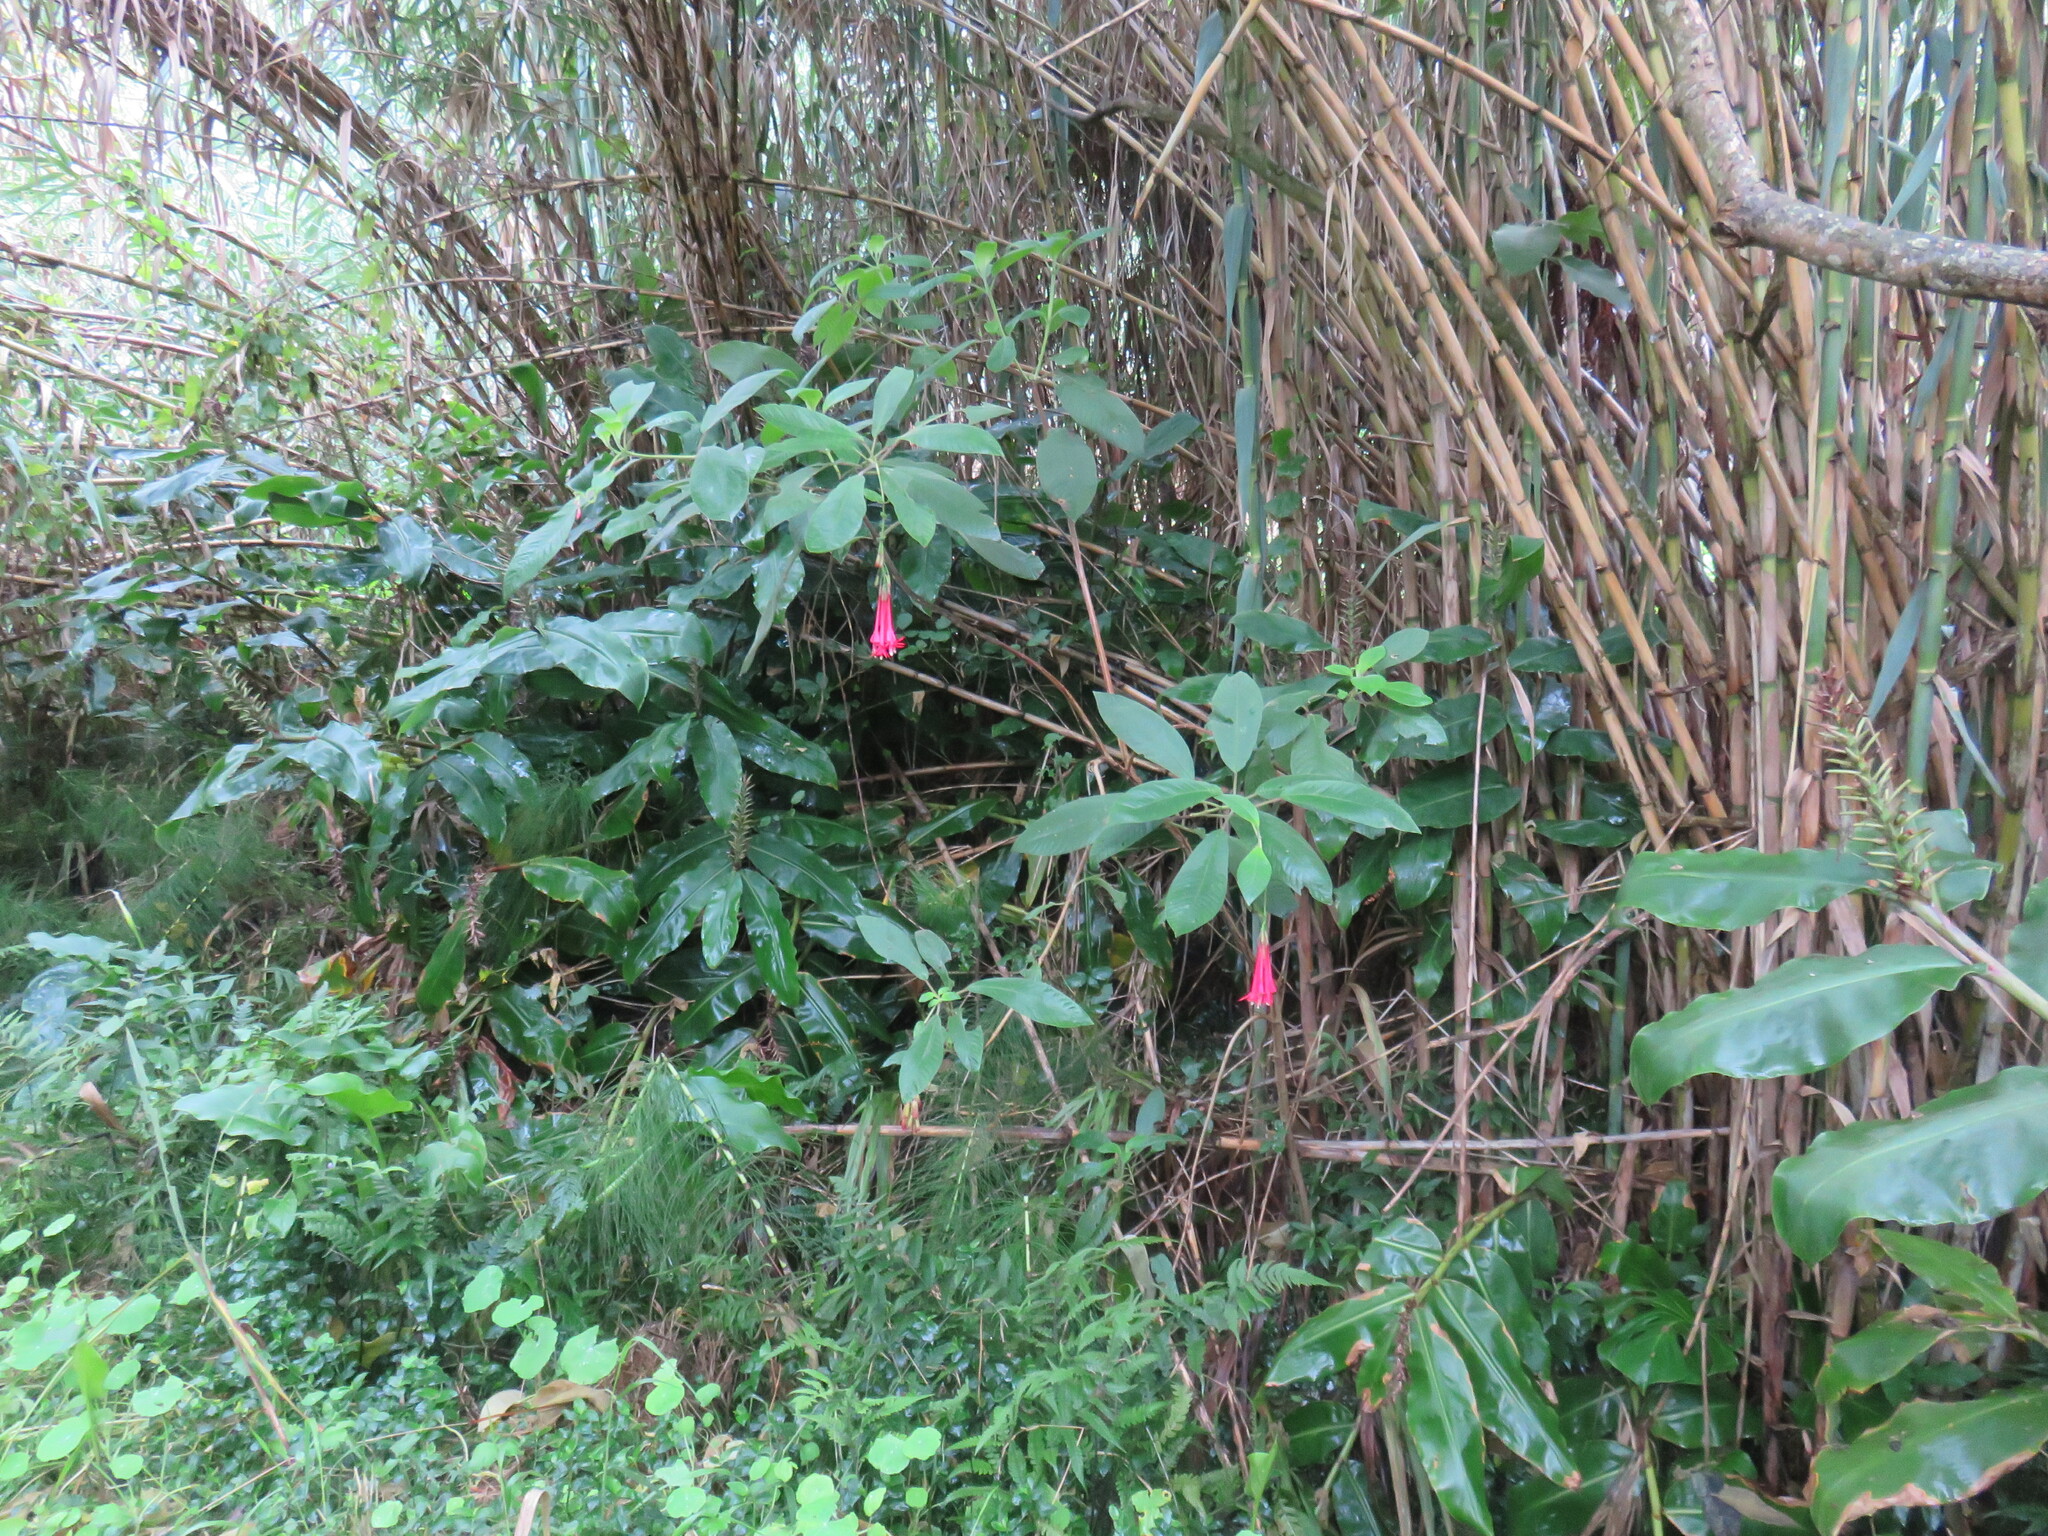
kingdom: Plantae
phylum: Tracheophyta
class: Magnoliopsida
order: Myrtales
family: Onagraceae
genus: Fuchsia
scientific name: Fuchsia boliviana
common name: Bolivian fuchsia
